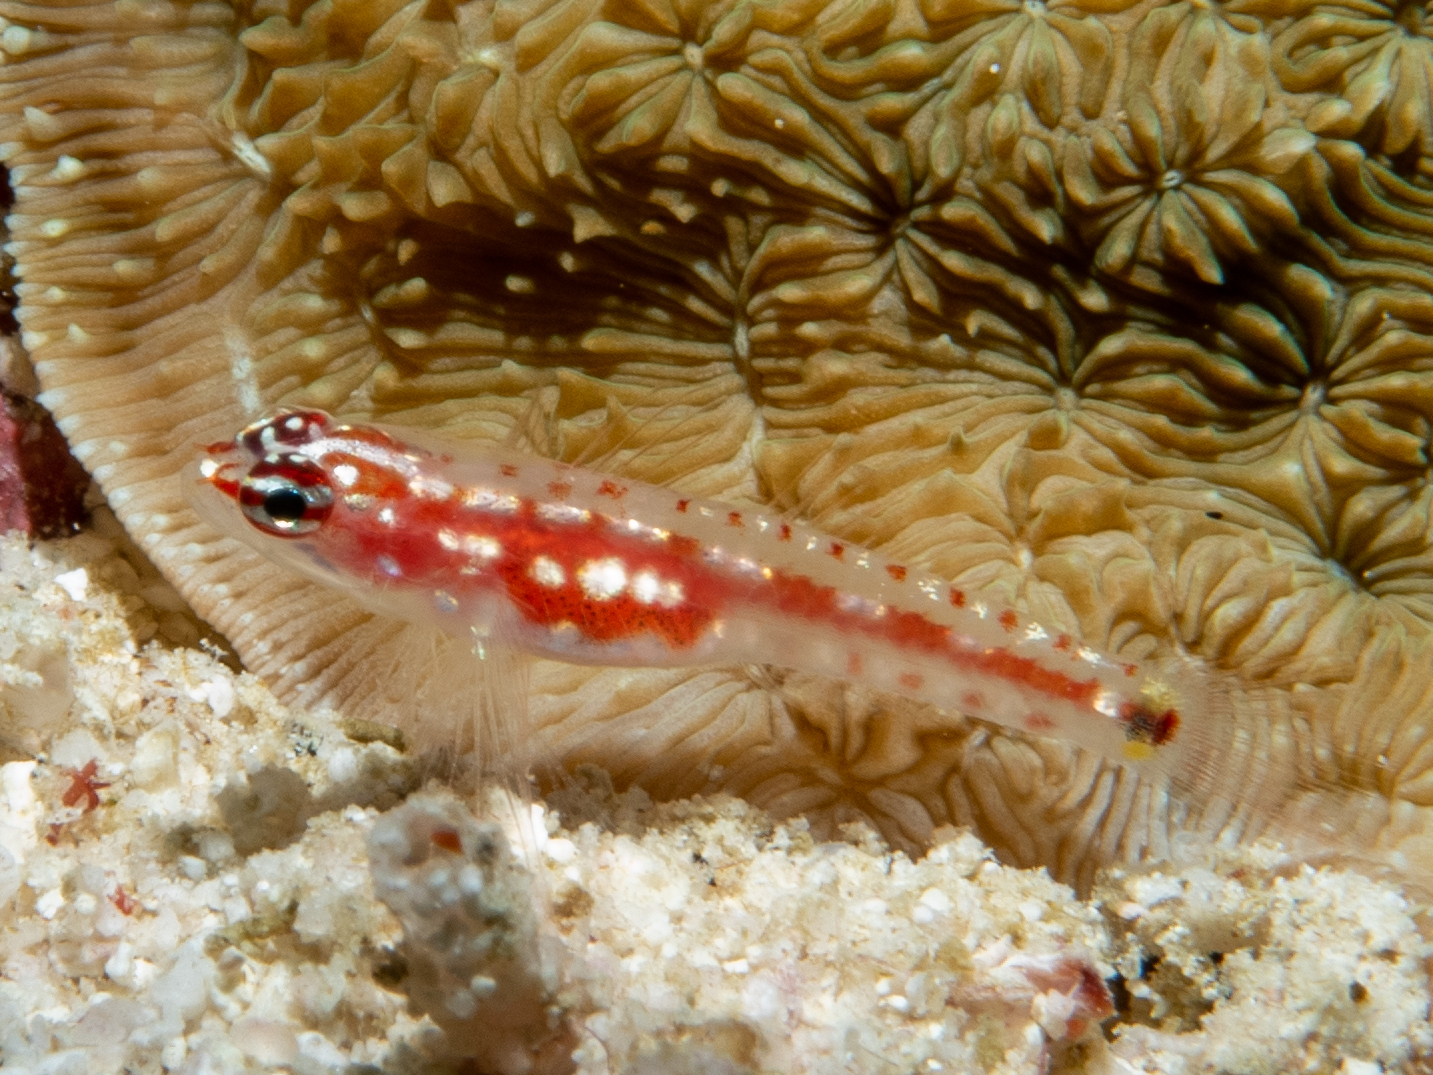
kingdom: Animalia
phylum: Chordata
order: Perciformes
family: Gobiidae
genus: Eviota
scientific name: Eviota zebrina
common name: Five-bar pygmy-goby
